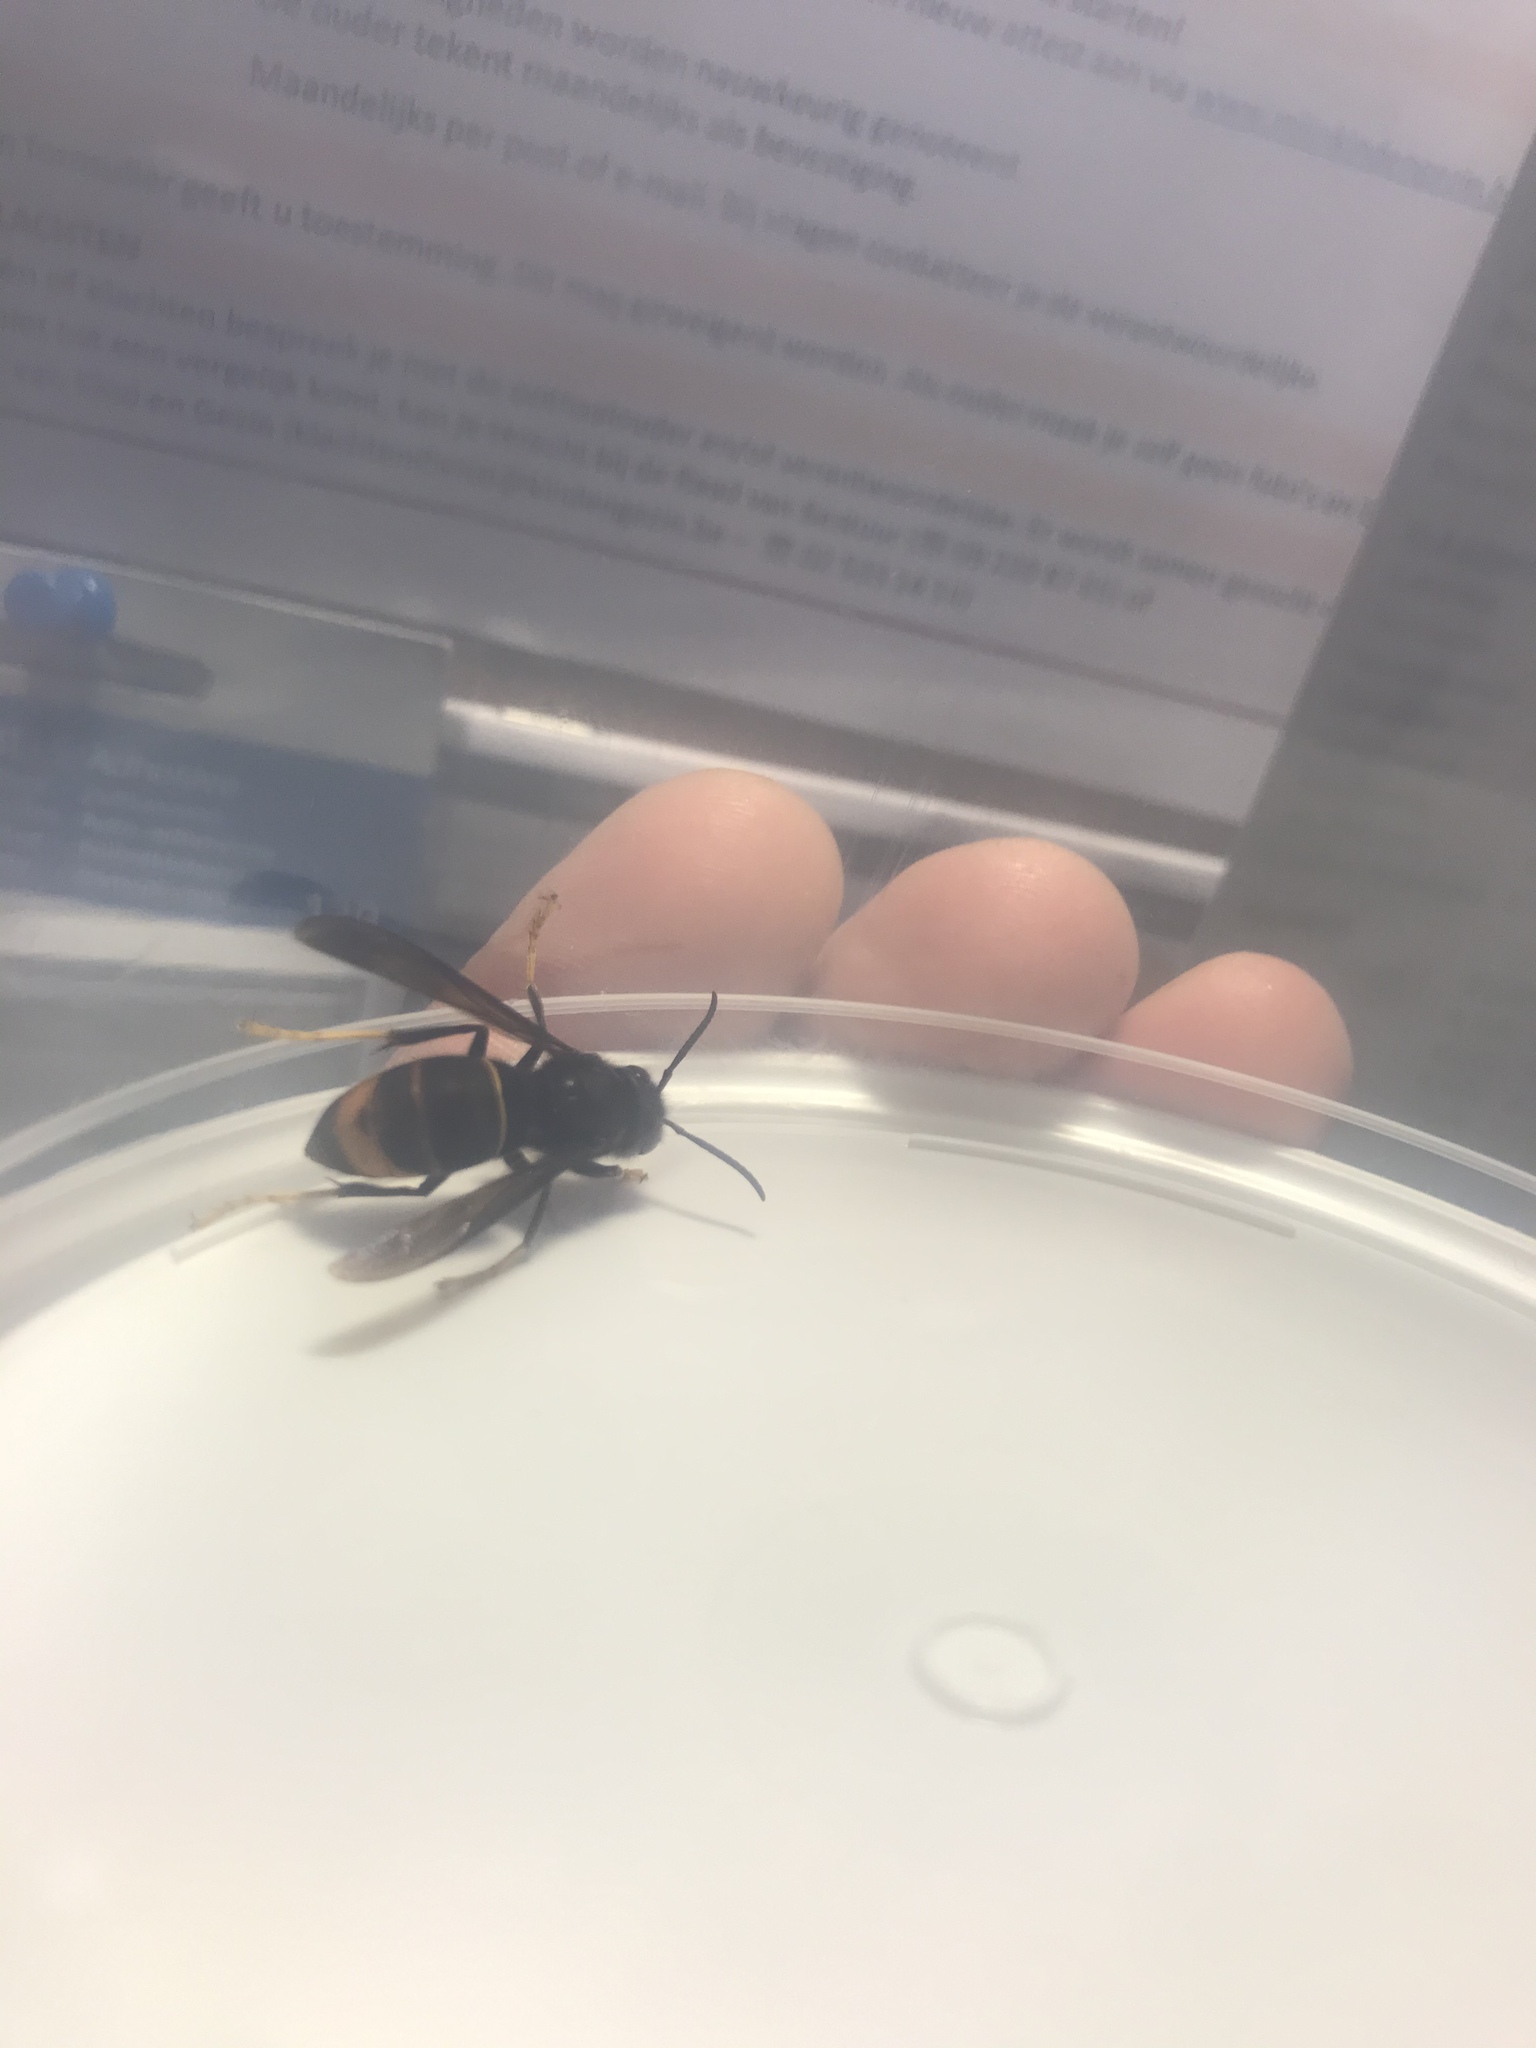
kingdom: Animalia
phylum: Arthropoda
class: Insecta
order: Hymenoptera
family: Vespidae
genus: Vespa
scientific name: Vespa velutina
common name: Asian hornet
